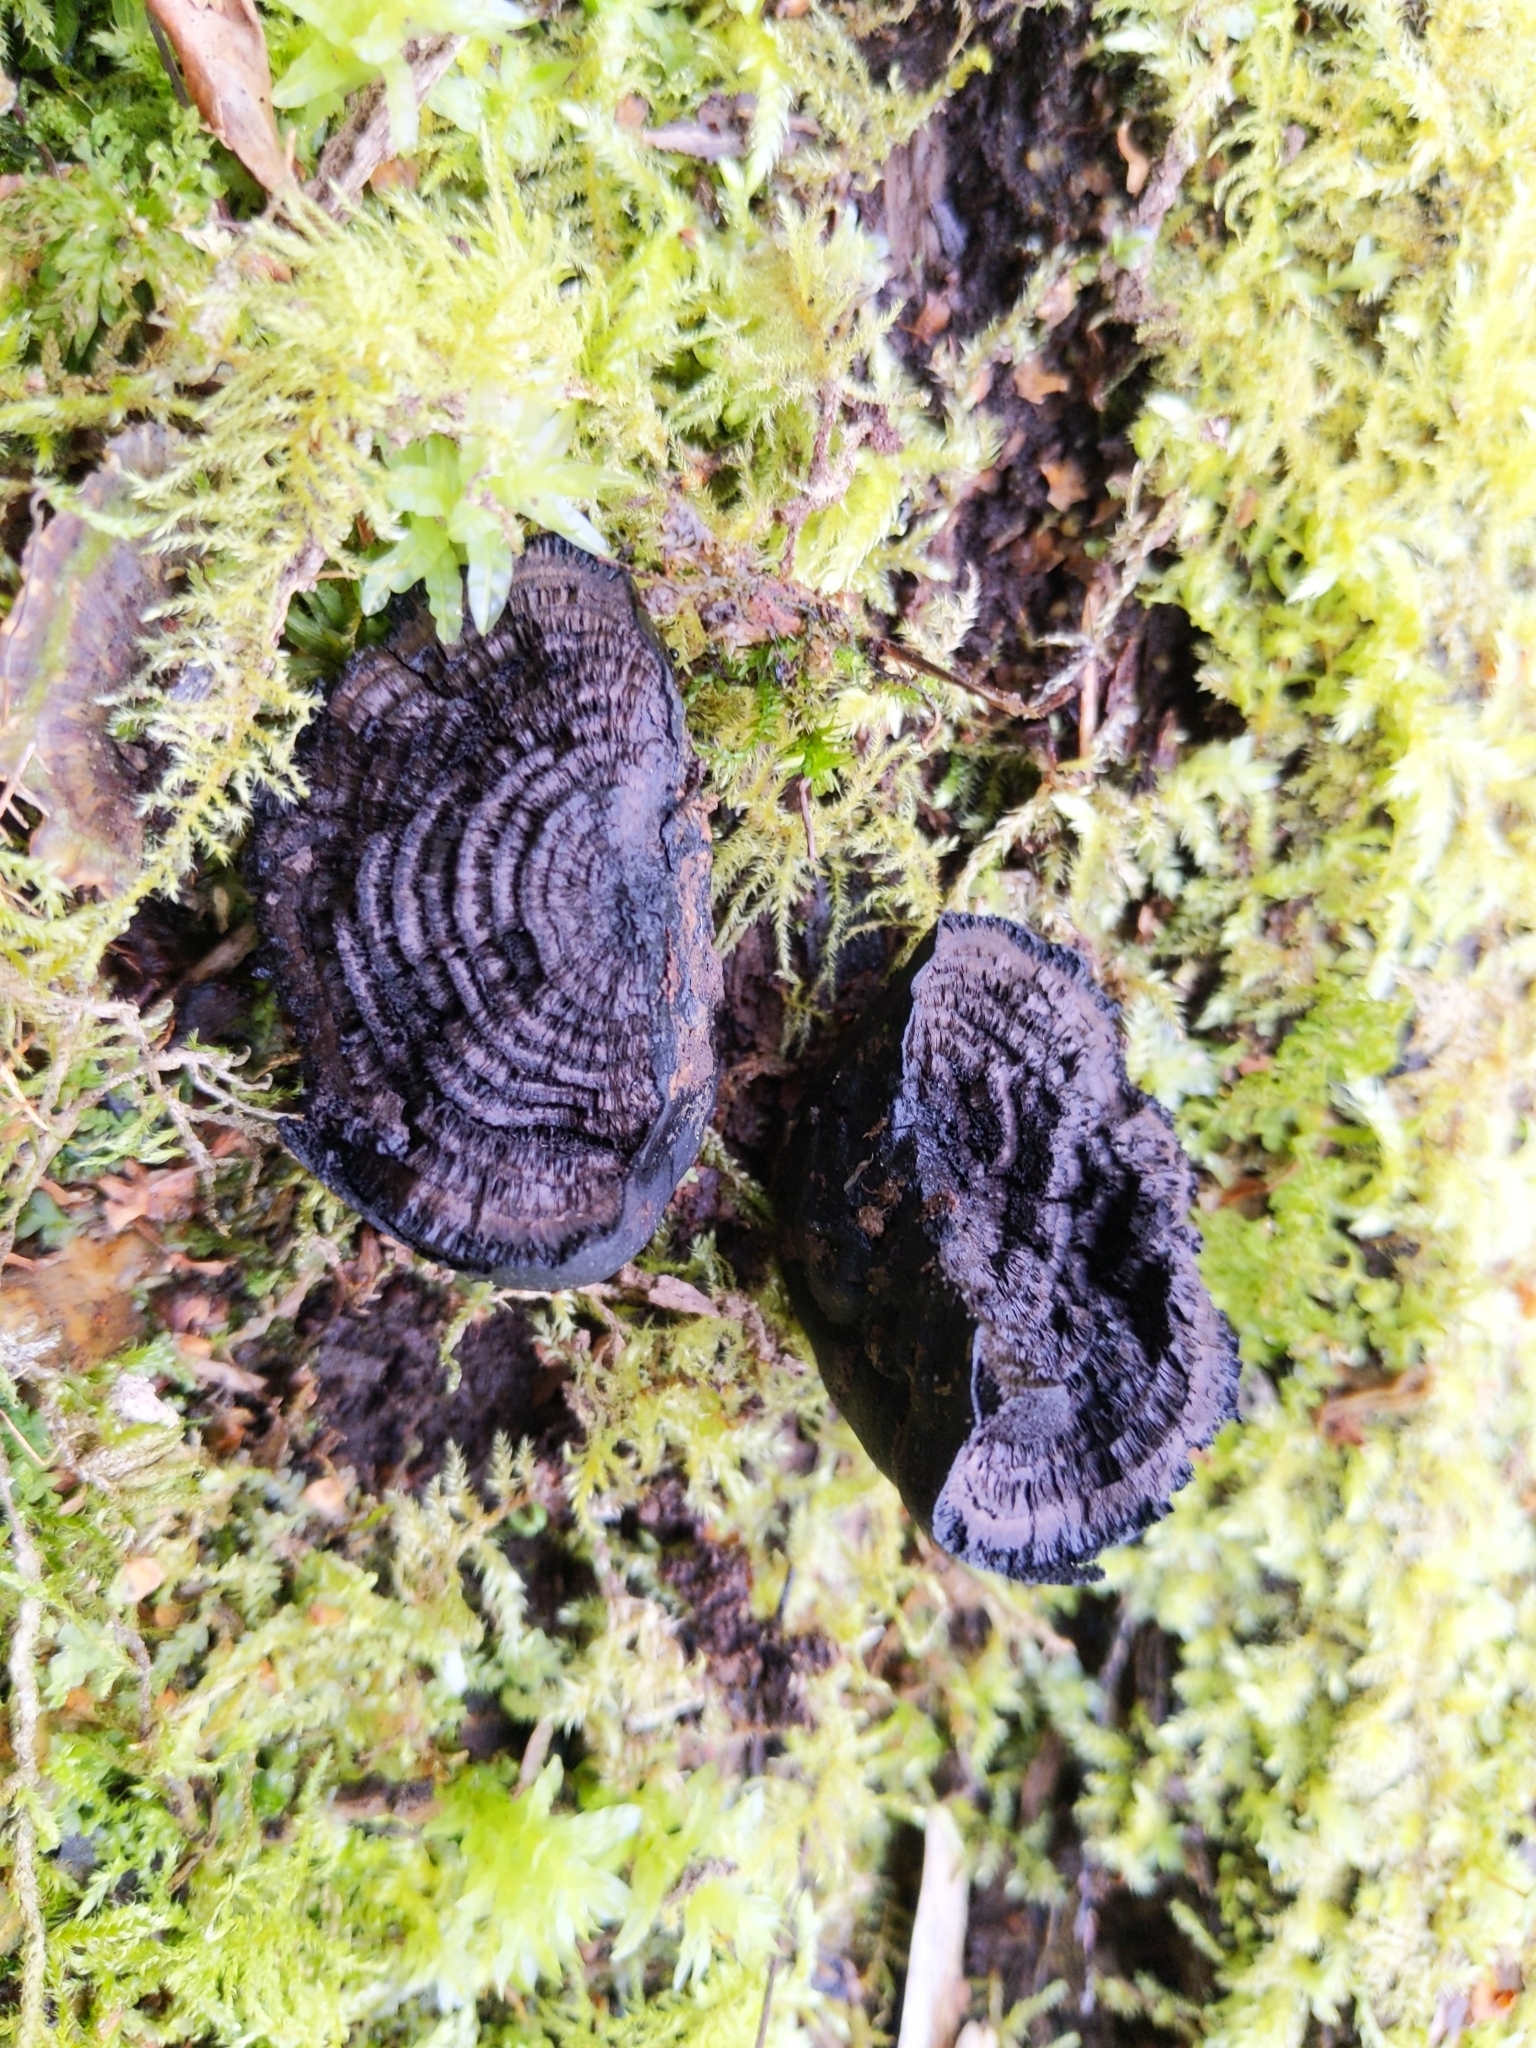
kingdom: Fungi
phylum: Ascomycota
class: Sordariomycetes
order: Xylariales
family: Hypoxylaceae
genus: Daldinia
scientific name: Daldinia concentrica
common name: Cramp balls
